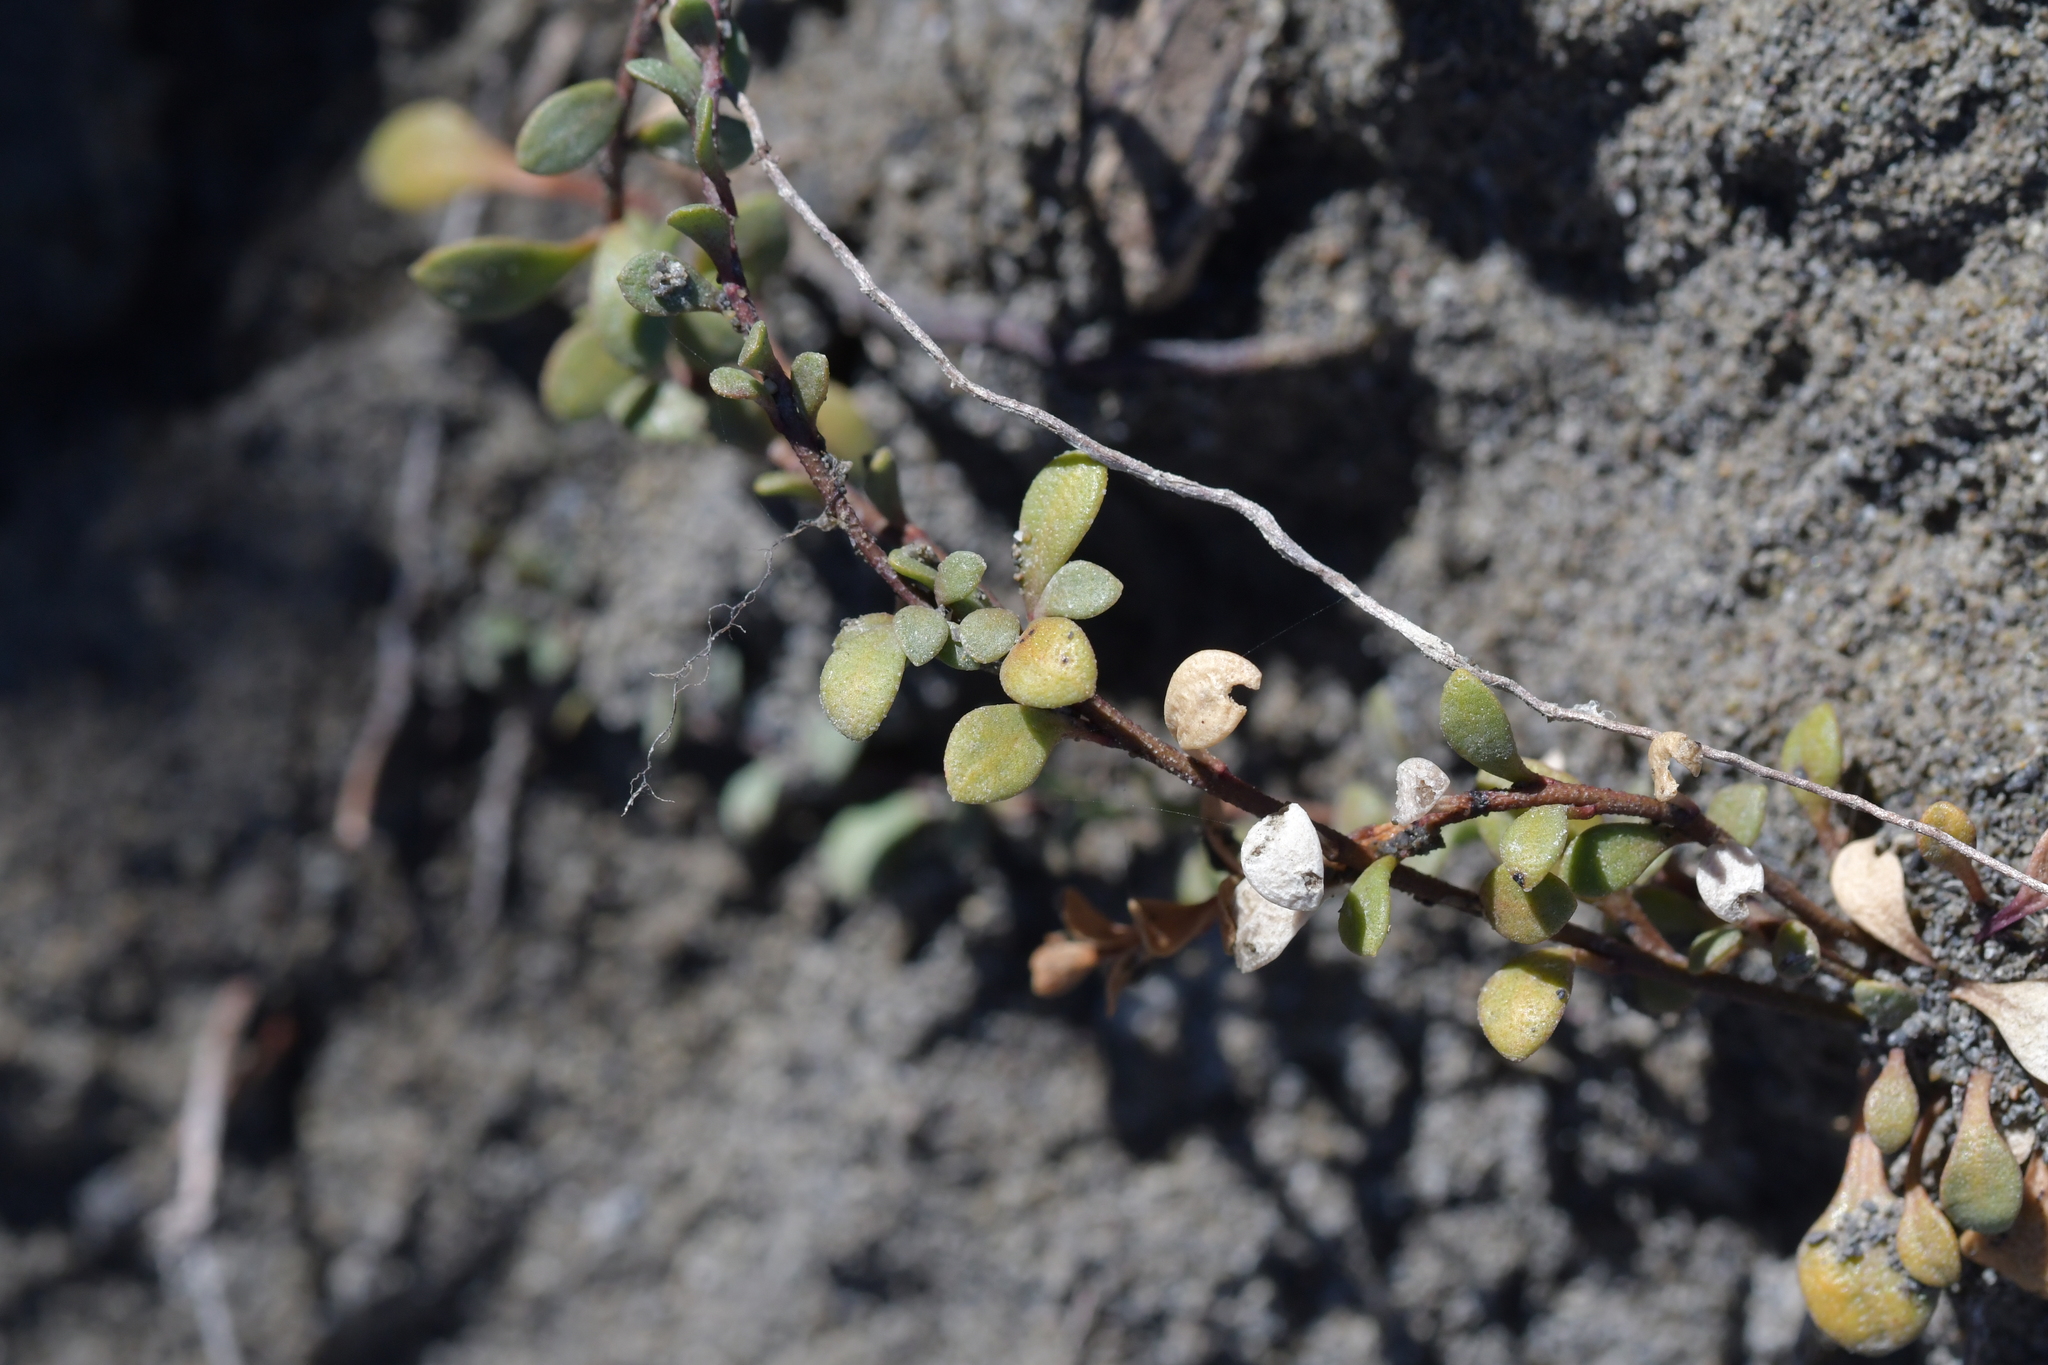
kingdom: Plantae
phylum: Tracheophyta
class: Magnoliopsida
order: Ericales
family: Primulaceae
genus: Samolus
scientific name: Samolus repens
